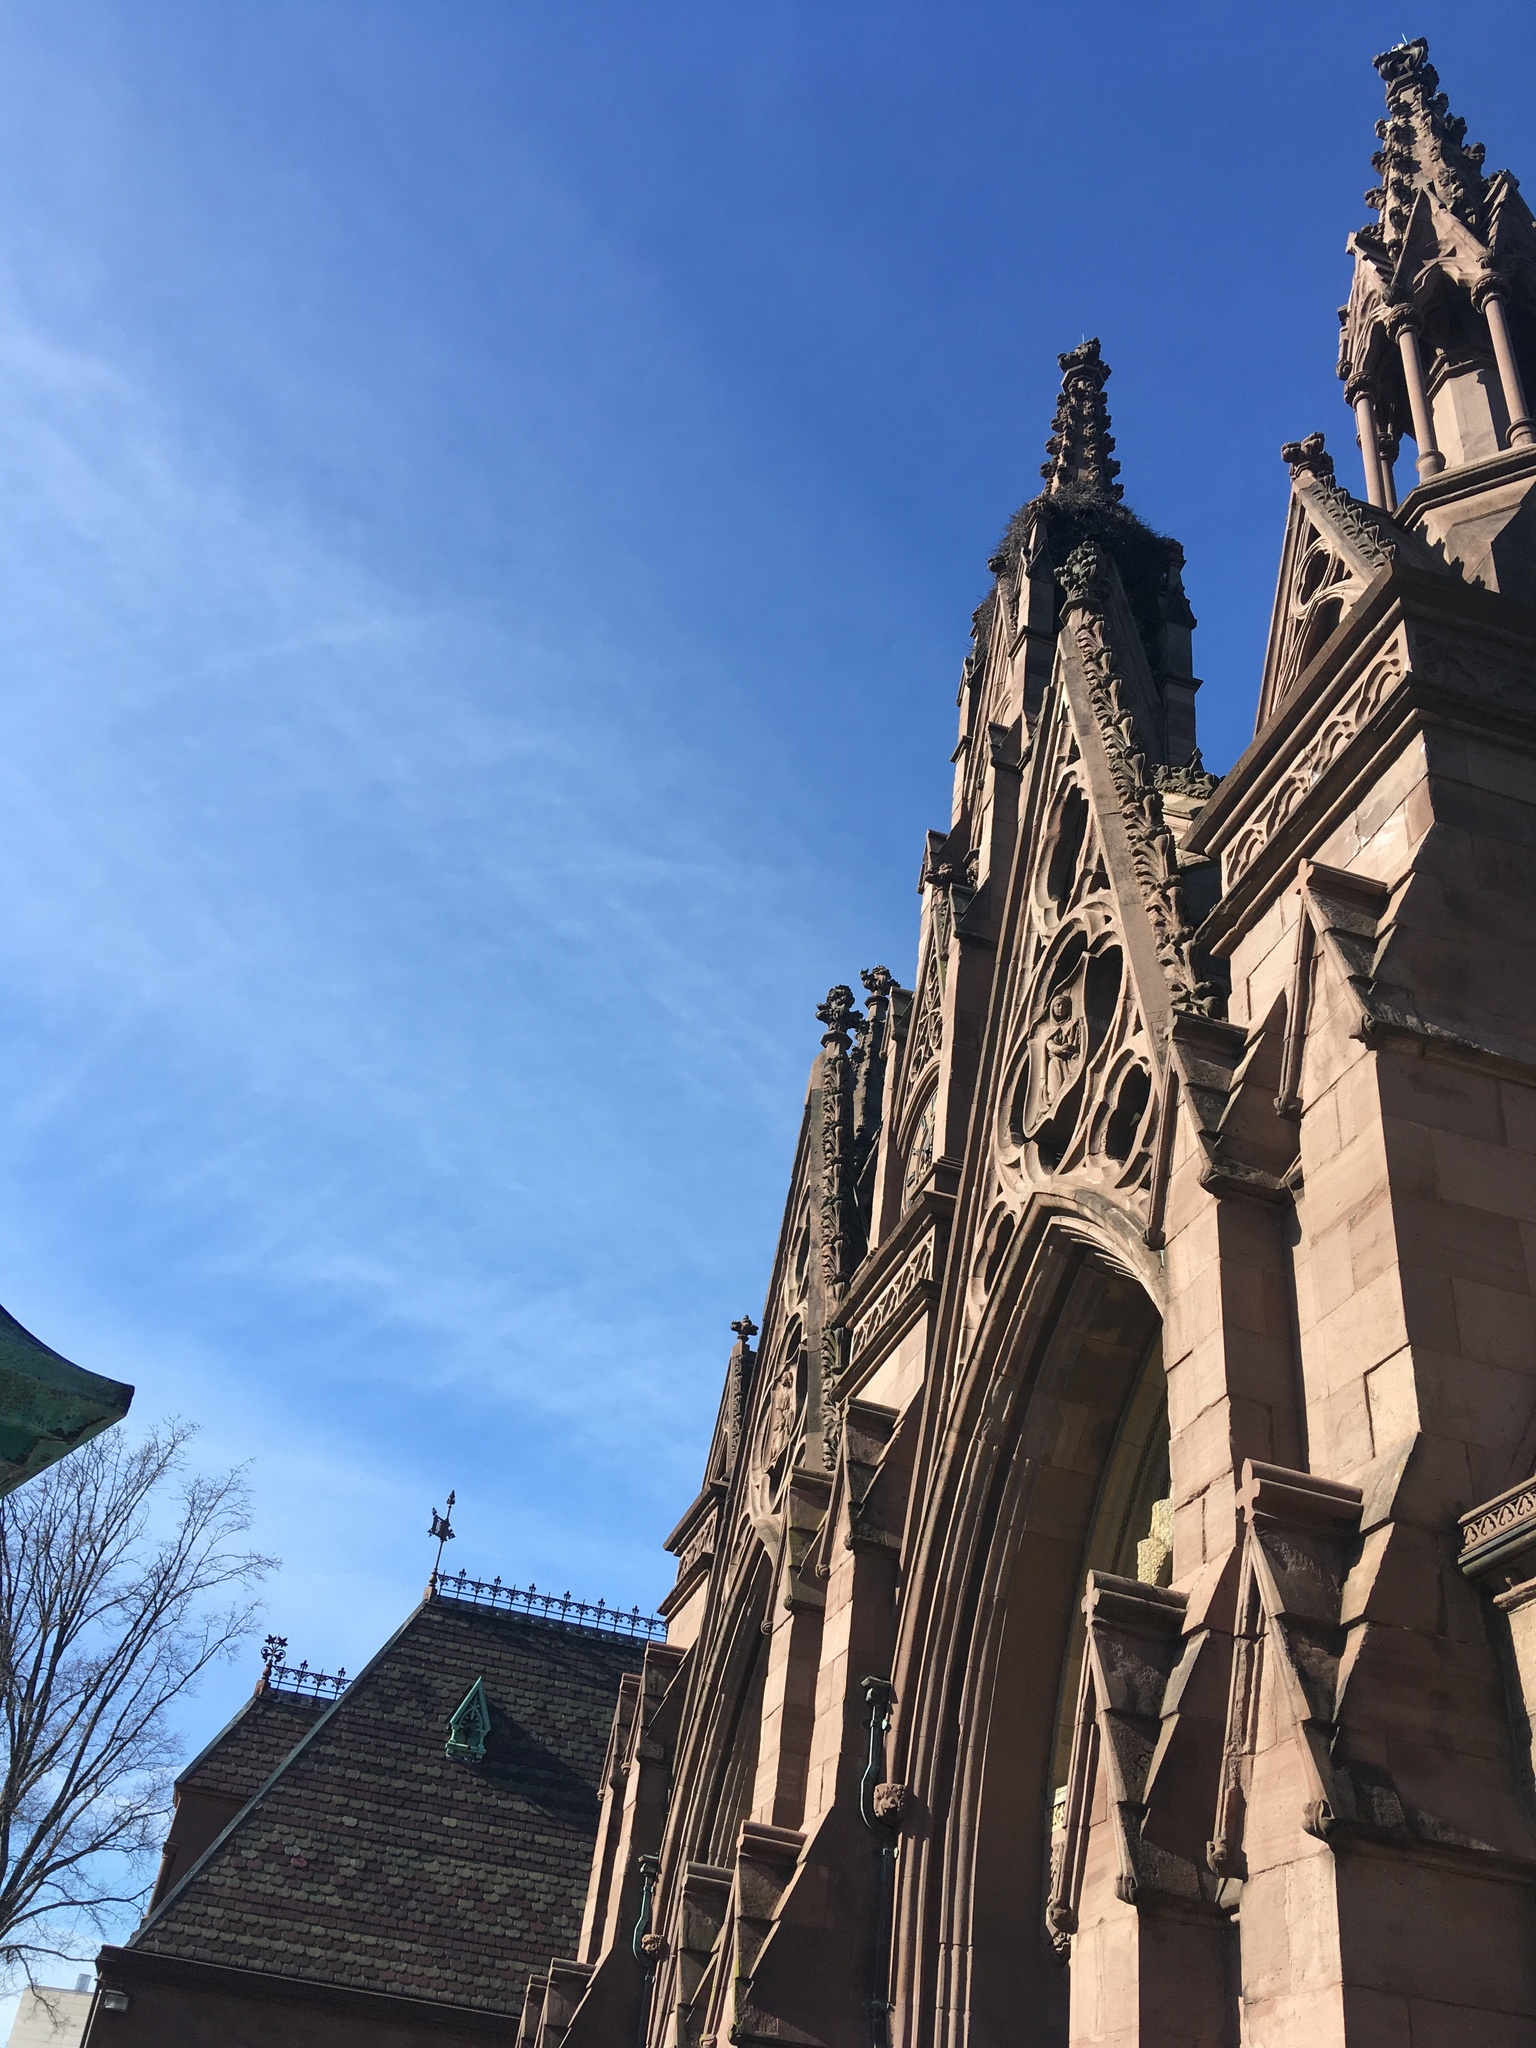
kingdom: Animalia
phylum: Chordata
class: Aves
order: Psittaciformes
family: Psittacidae
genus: Myiopsitta
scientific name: Myiopsitta monachus
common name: Monk parakeet
